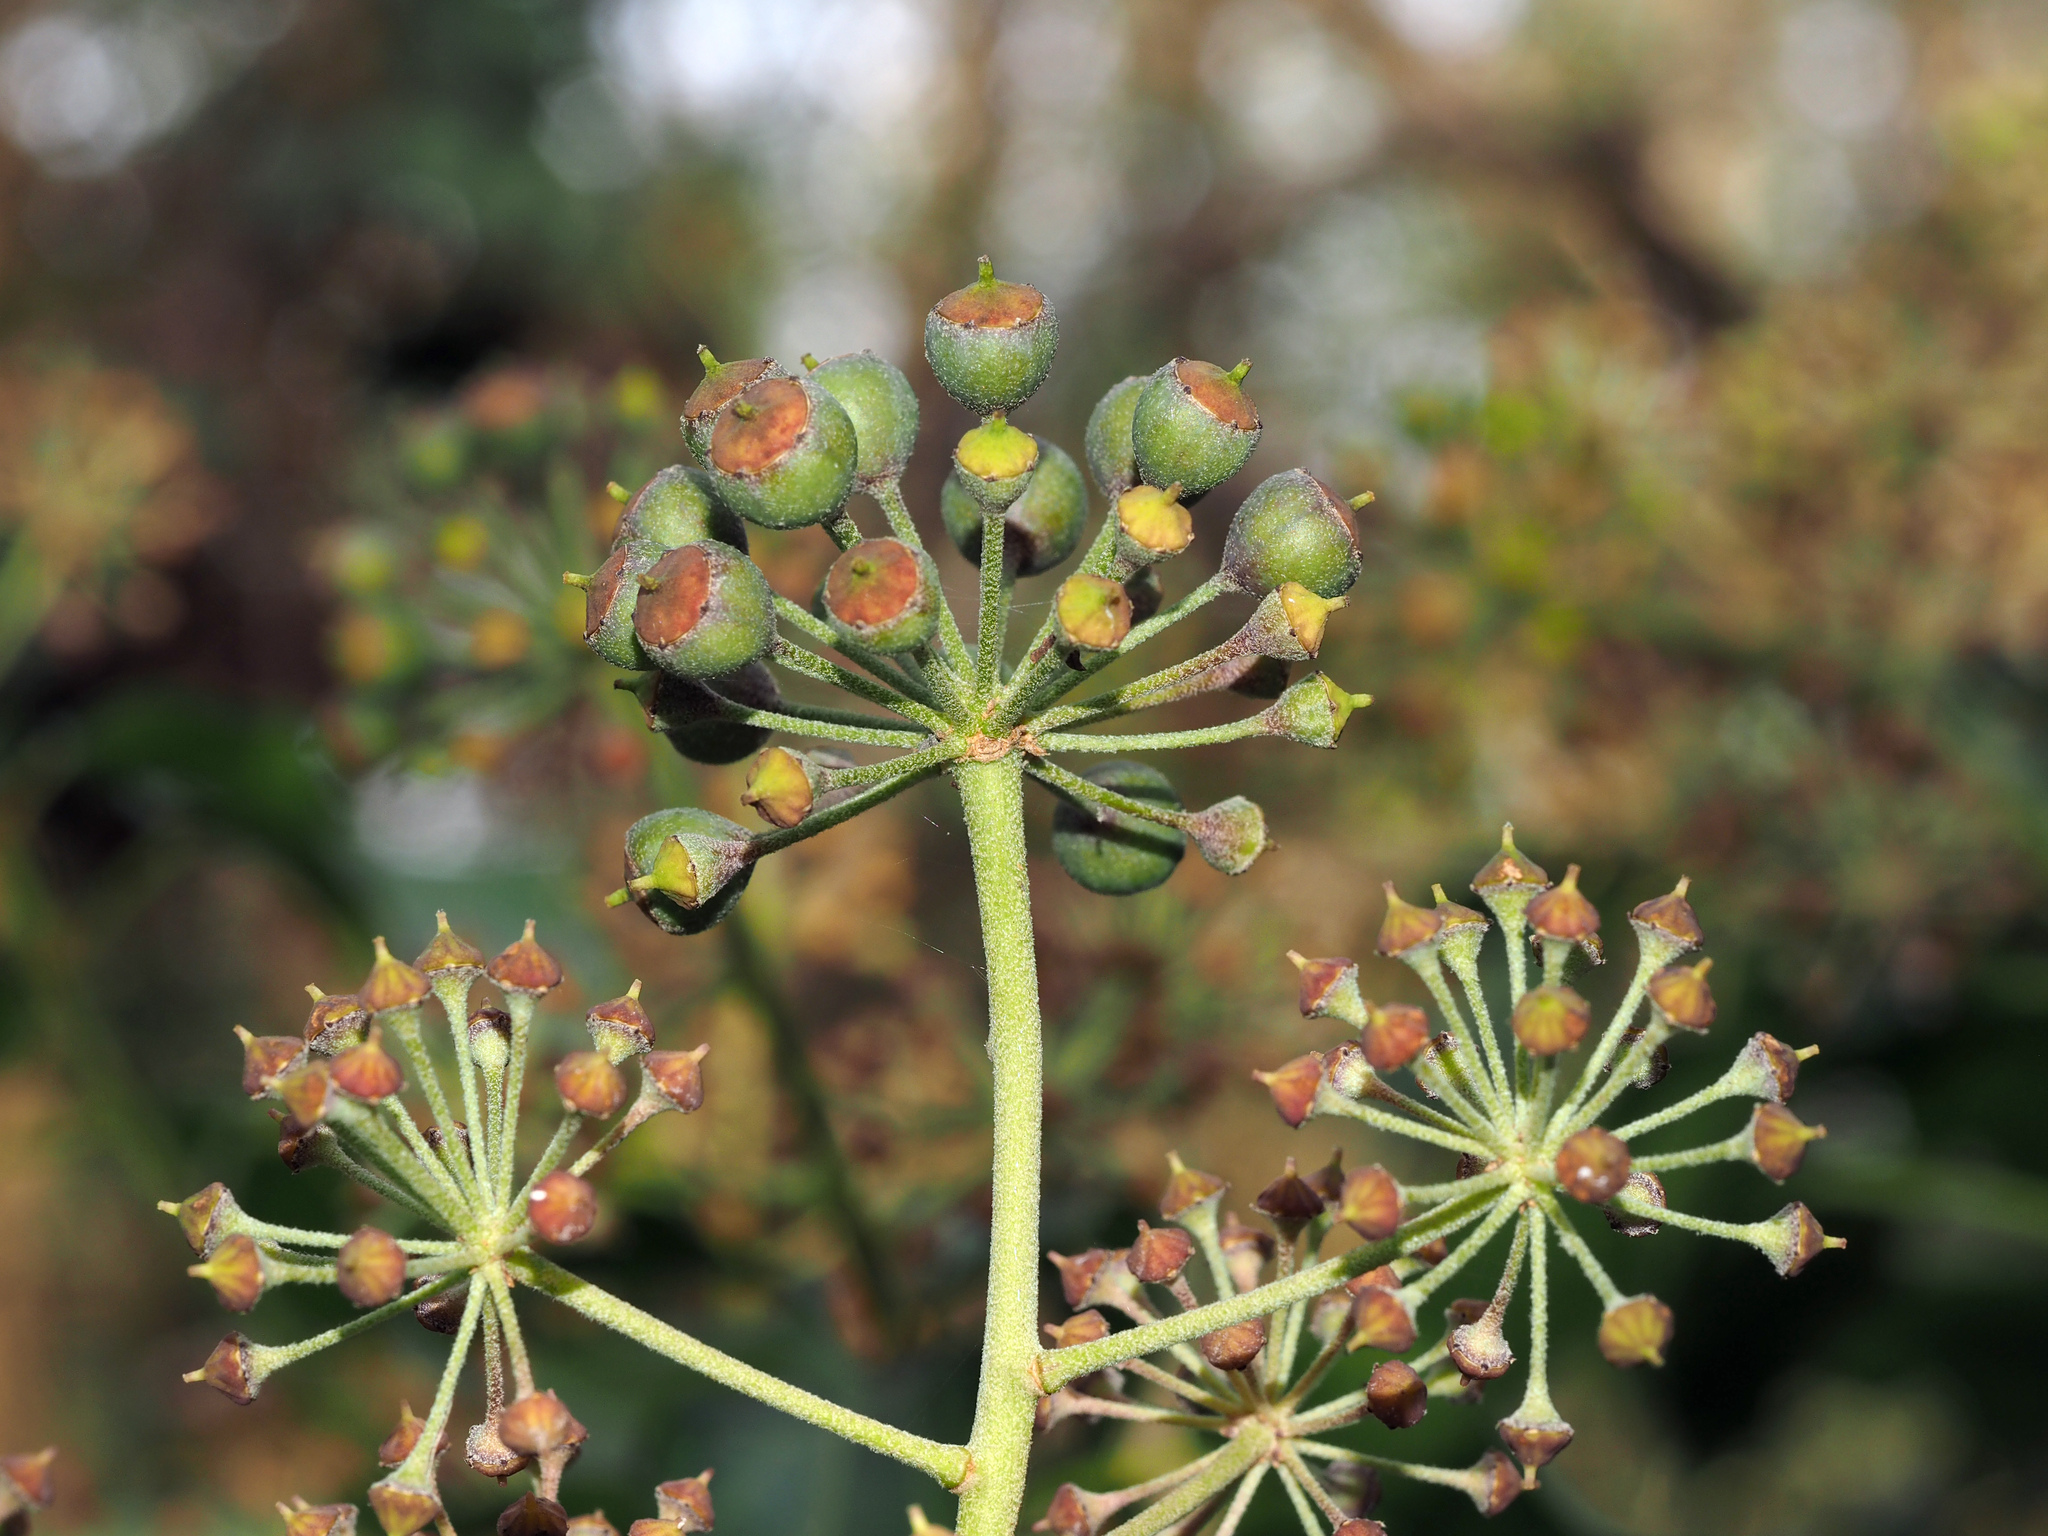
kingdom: Plantae
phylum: Tracheophyta
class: Magnoliopsida
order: Apiales
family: Araliaceae
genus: Hedera
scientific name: Hedera helix
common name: Ivy
